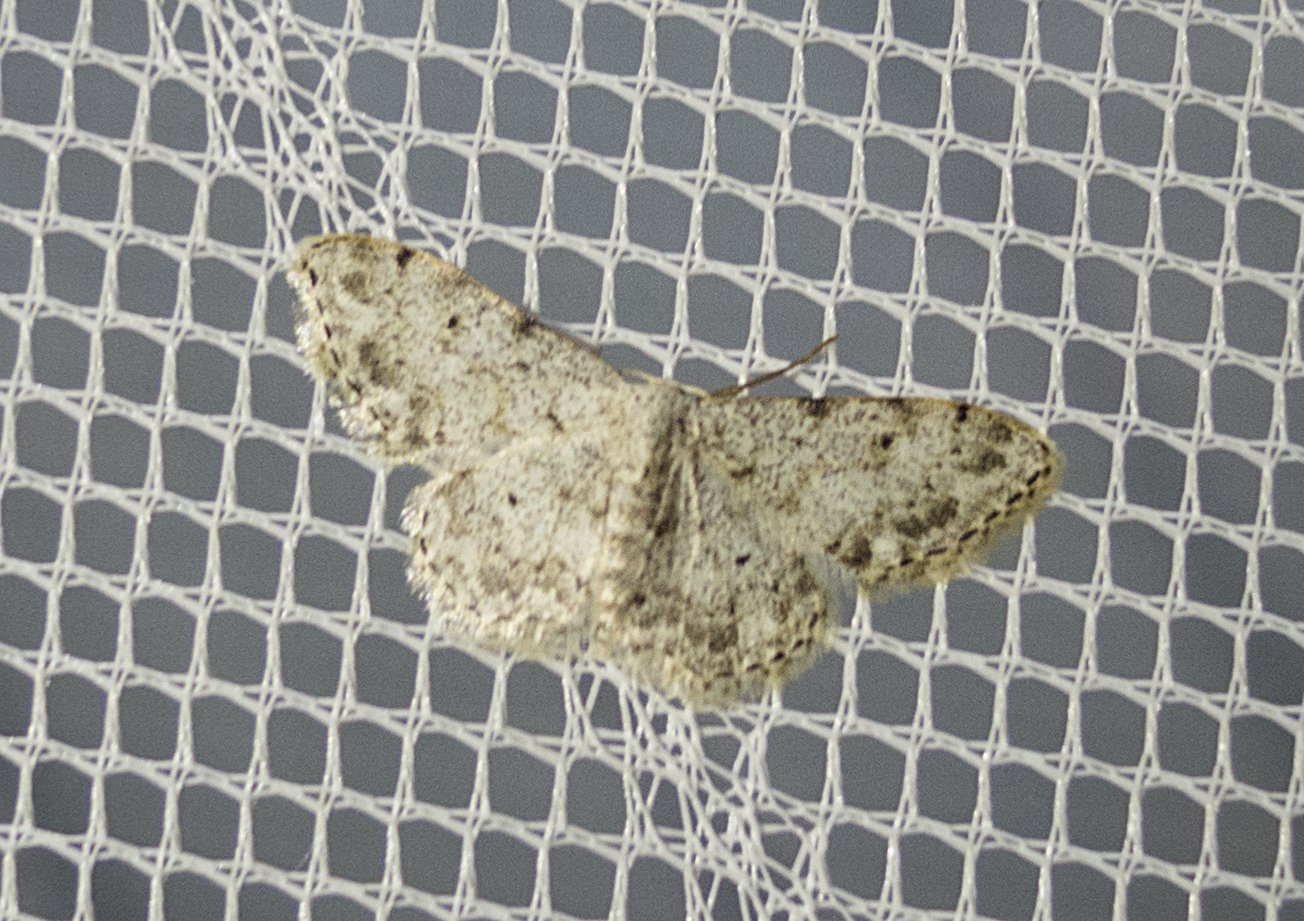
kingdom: Animalia
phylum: Arthropoda
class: Insecta
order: Lepidoptera
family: Geometridae
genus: Idaea
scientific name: Idaea camparia
